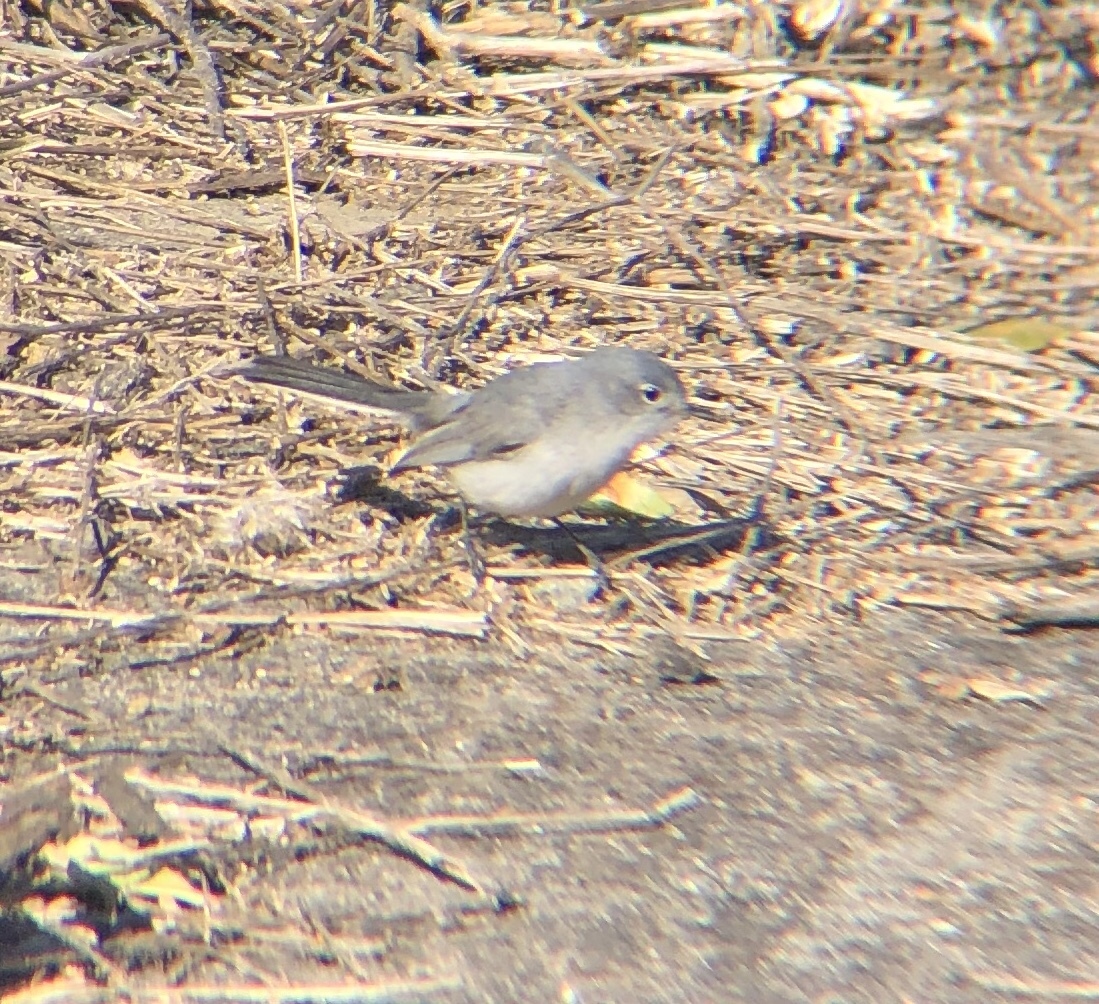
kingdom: Animalia
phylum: Chordata
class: Aves
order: Passeriformes
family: Polioptilidae
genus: Polioptila
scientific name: Polioptila caerulea
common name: Blue-gray gnatcatcher
